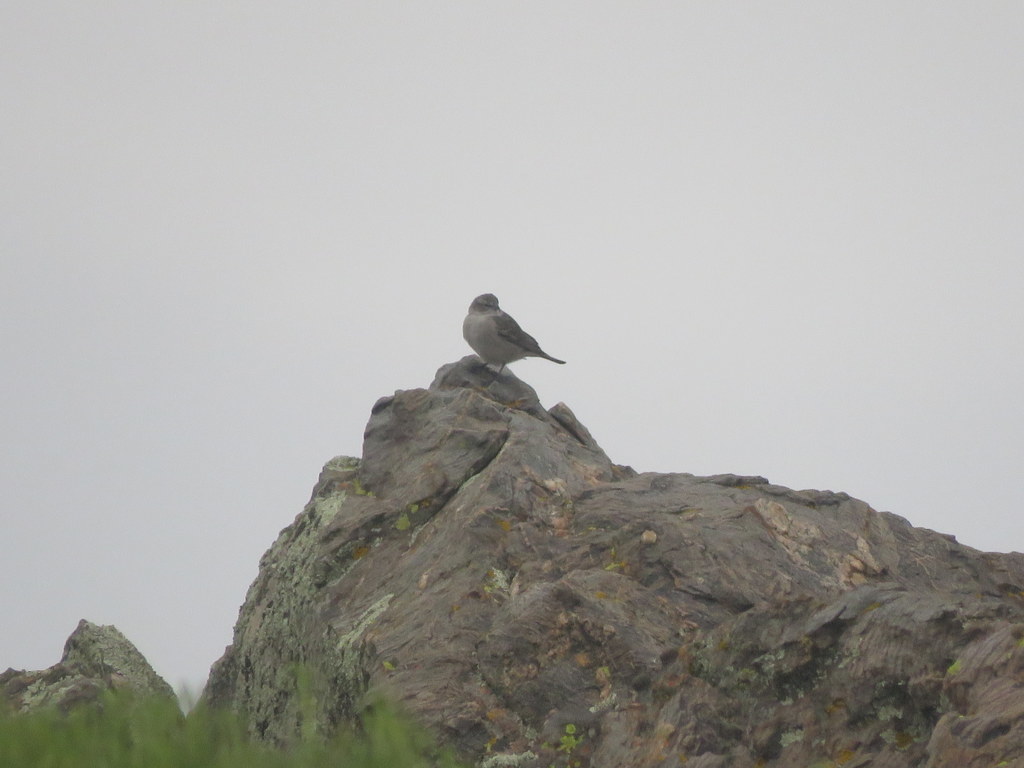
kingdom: Animalia
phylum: Chordata
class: Aves
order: Passeriformes
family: Thraupidae
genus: Geospizopsis
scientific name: Geospizopsis plebejus
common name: Ash-breasted sierra-finch
